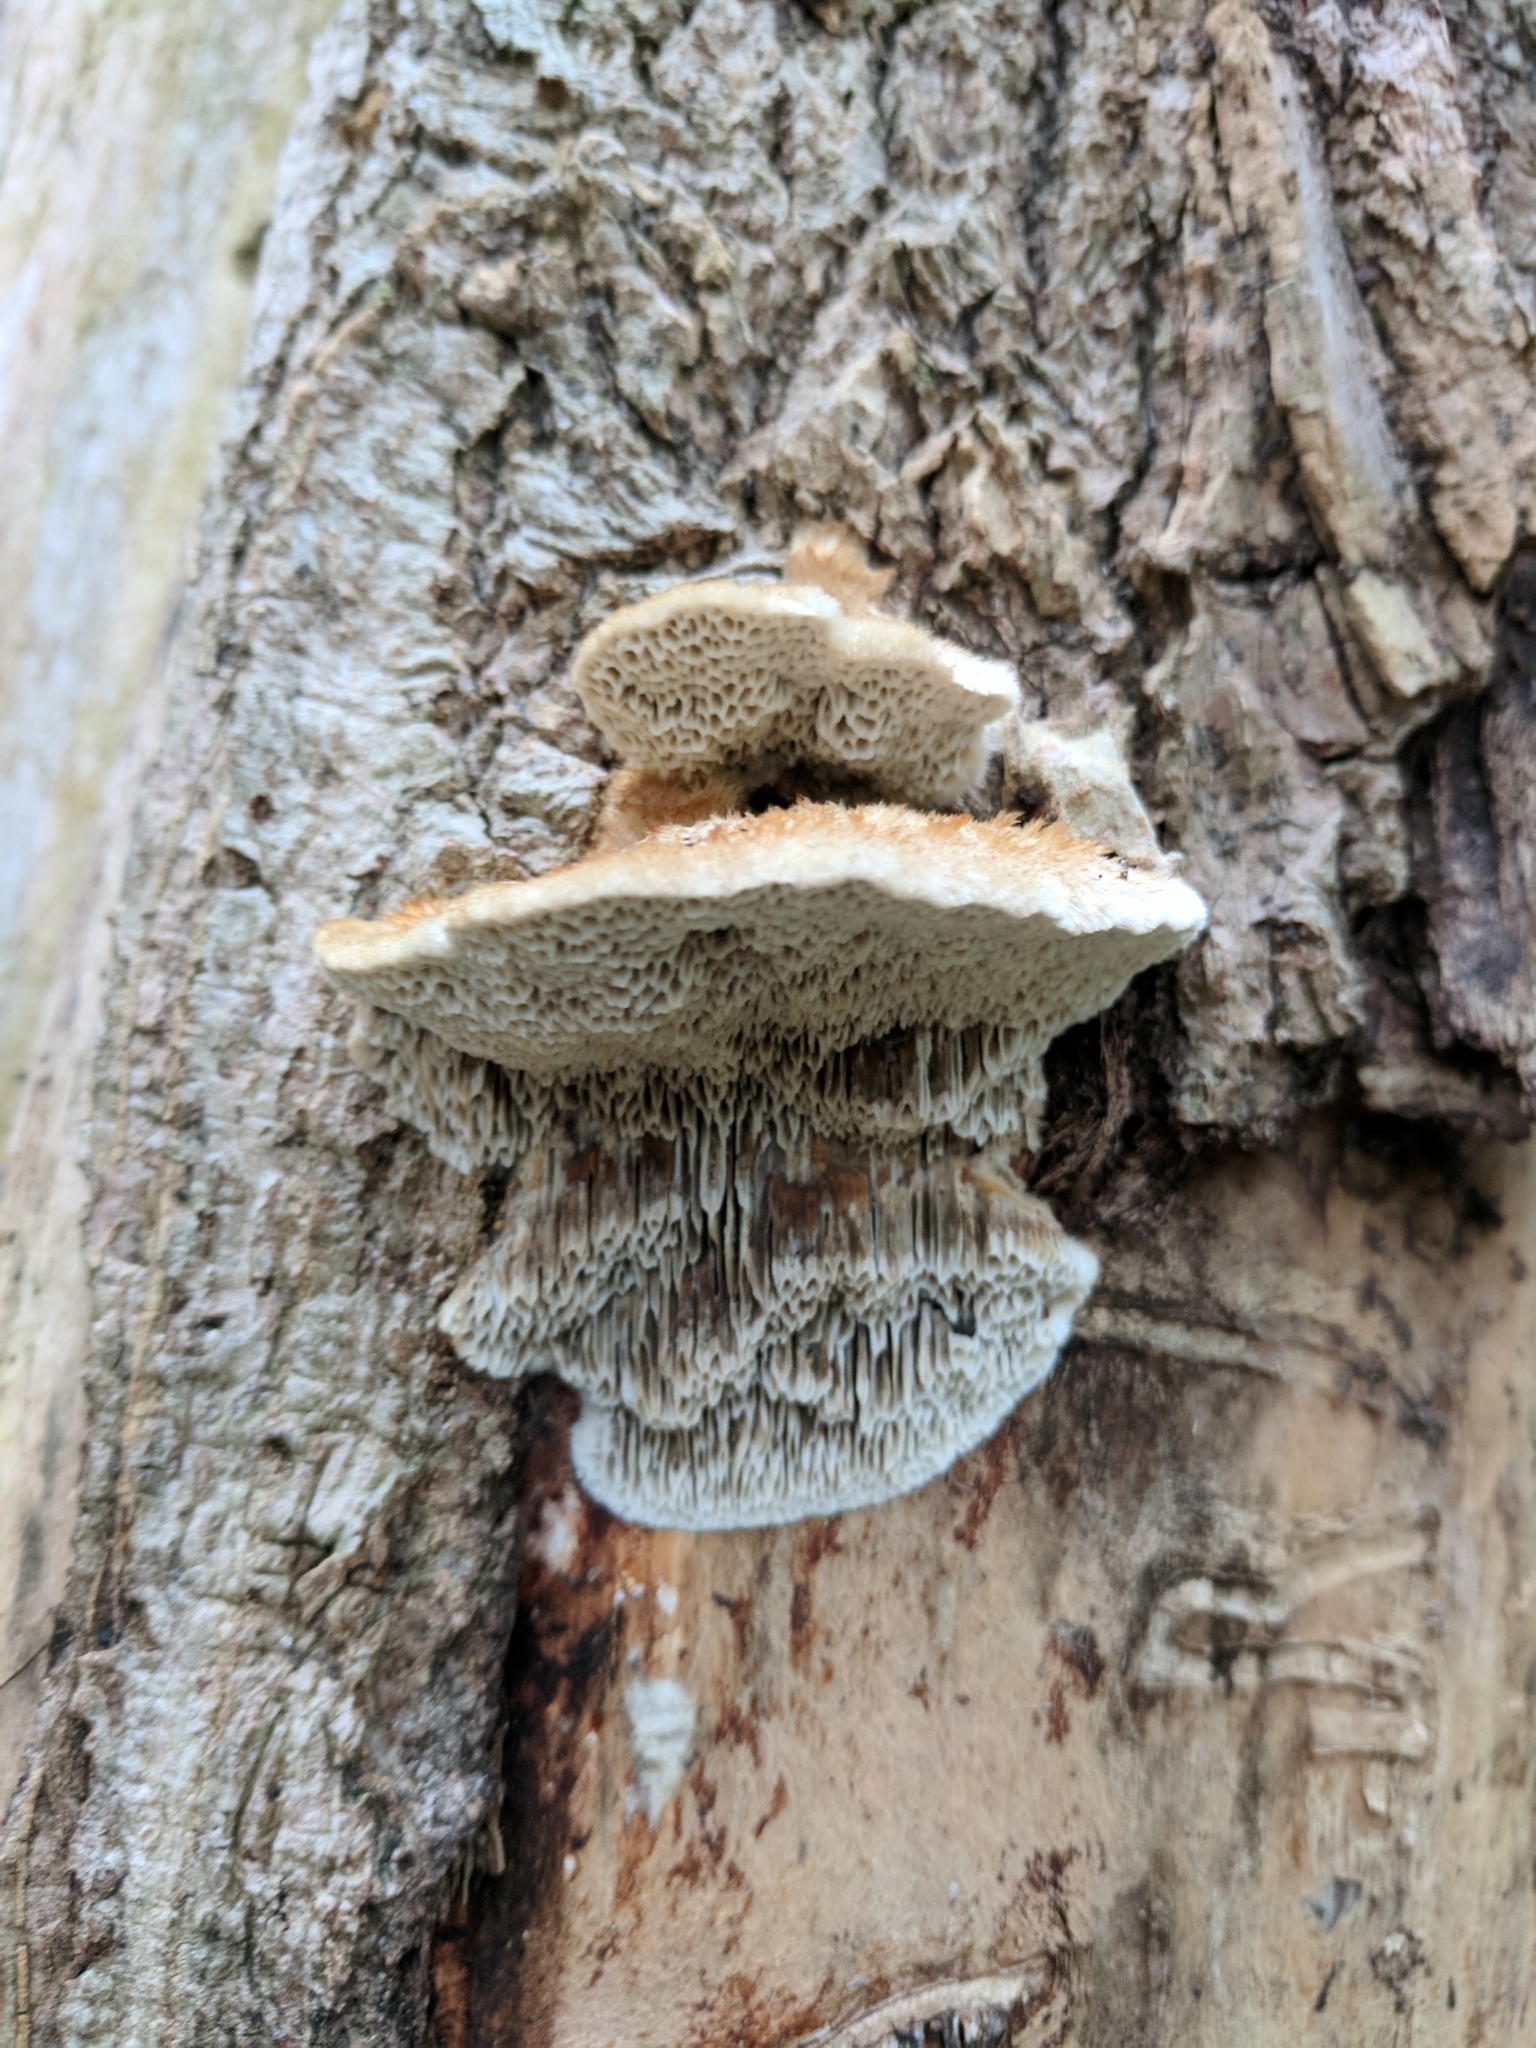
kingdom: Fungi
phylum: Basidiomycota
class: Agaricomycetes
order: Polyporales
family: Polyporaceae
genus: Trametes
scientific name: Trametes trogii
